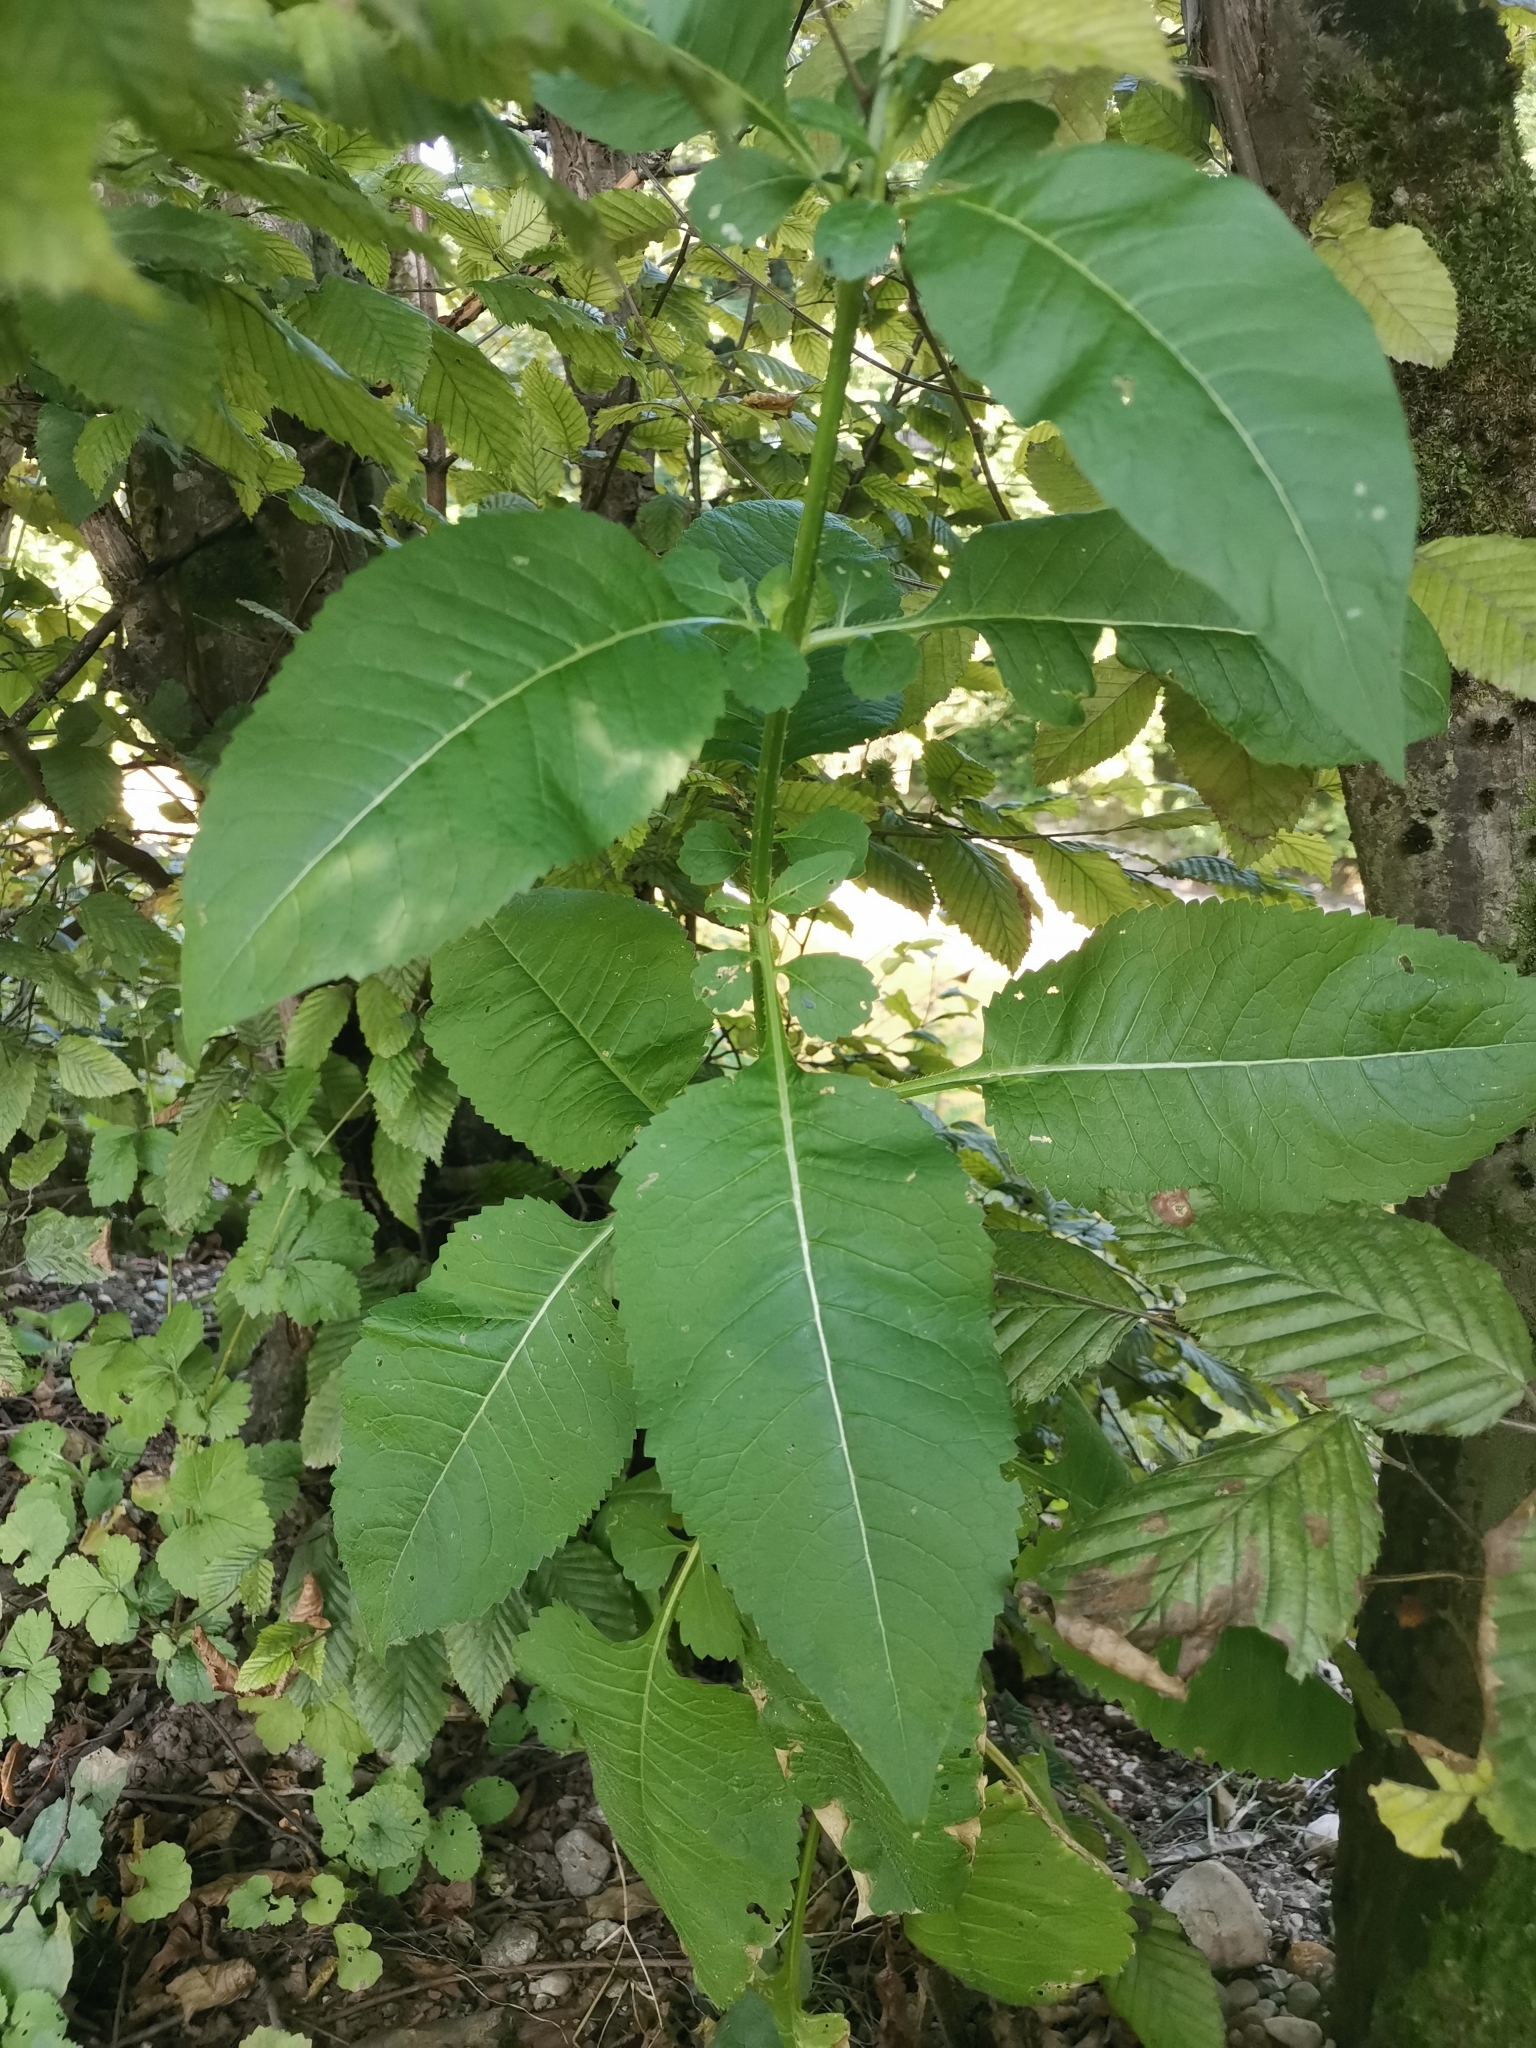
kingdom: Plantae
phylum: Tracheophyta
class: Magnoliopsida
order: Dipsacales
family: Caprifoliaceae
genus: Dipsacus
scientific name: Dipsacus strigosus
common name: Yellow-flowered teasel
